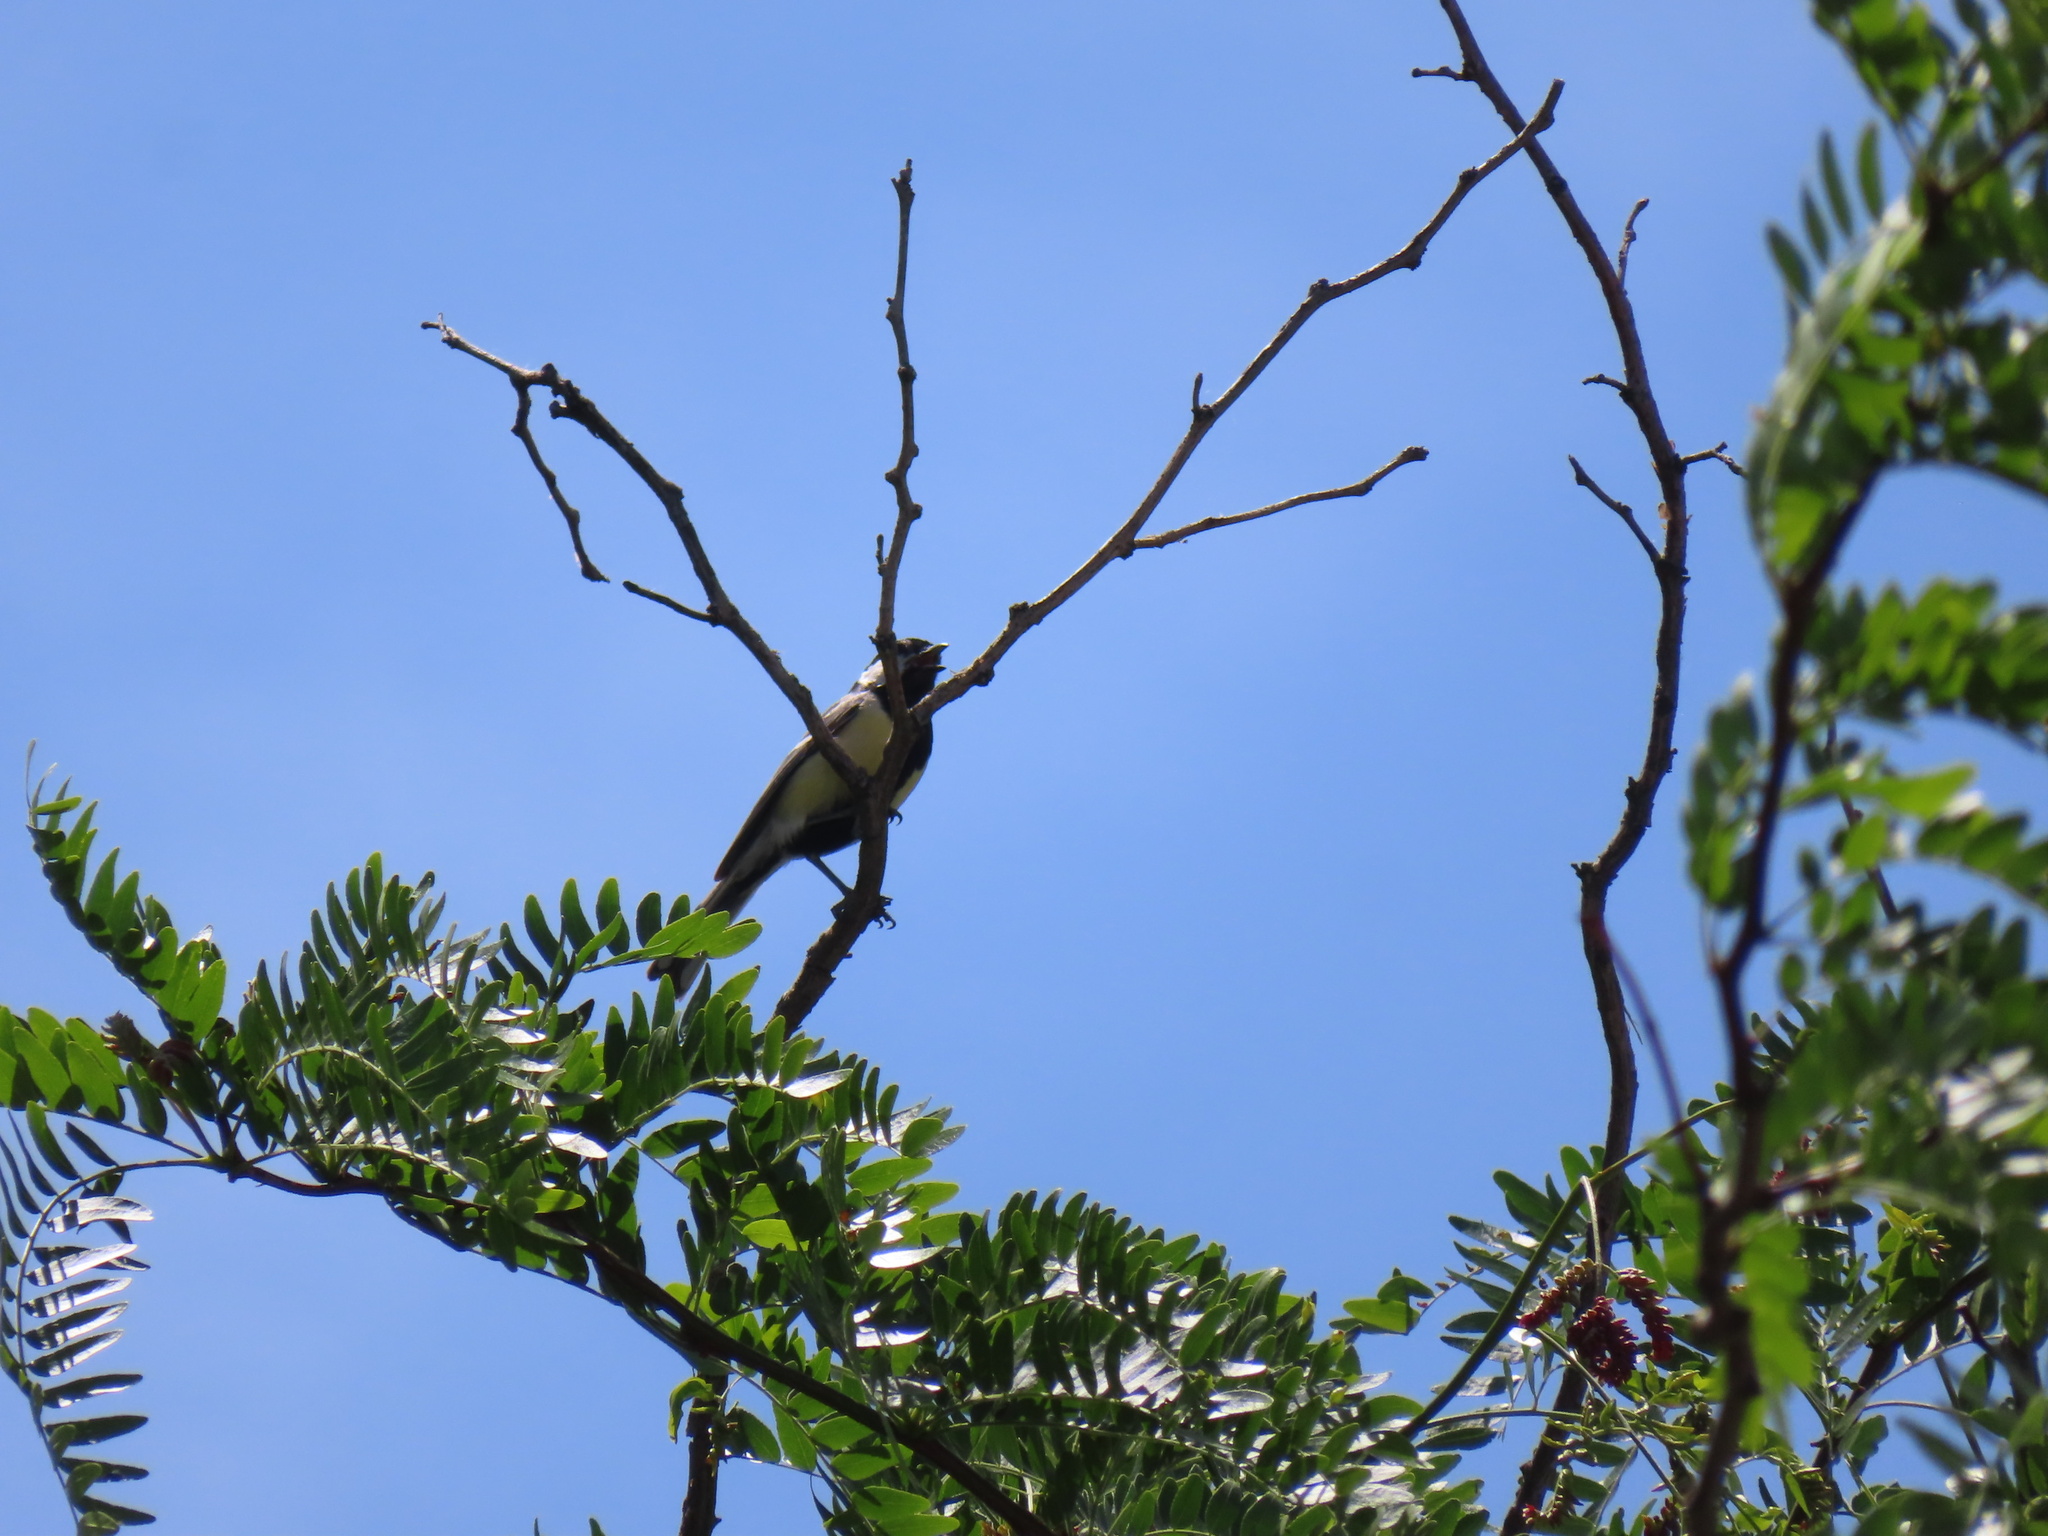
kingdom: Animalia
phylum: Chordata
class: Aves
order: Passeriformes
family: Paridae
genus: Parus
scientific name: Parus major
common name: Great tit
